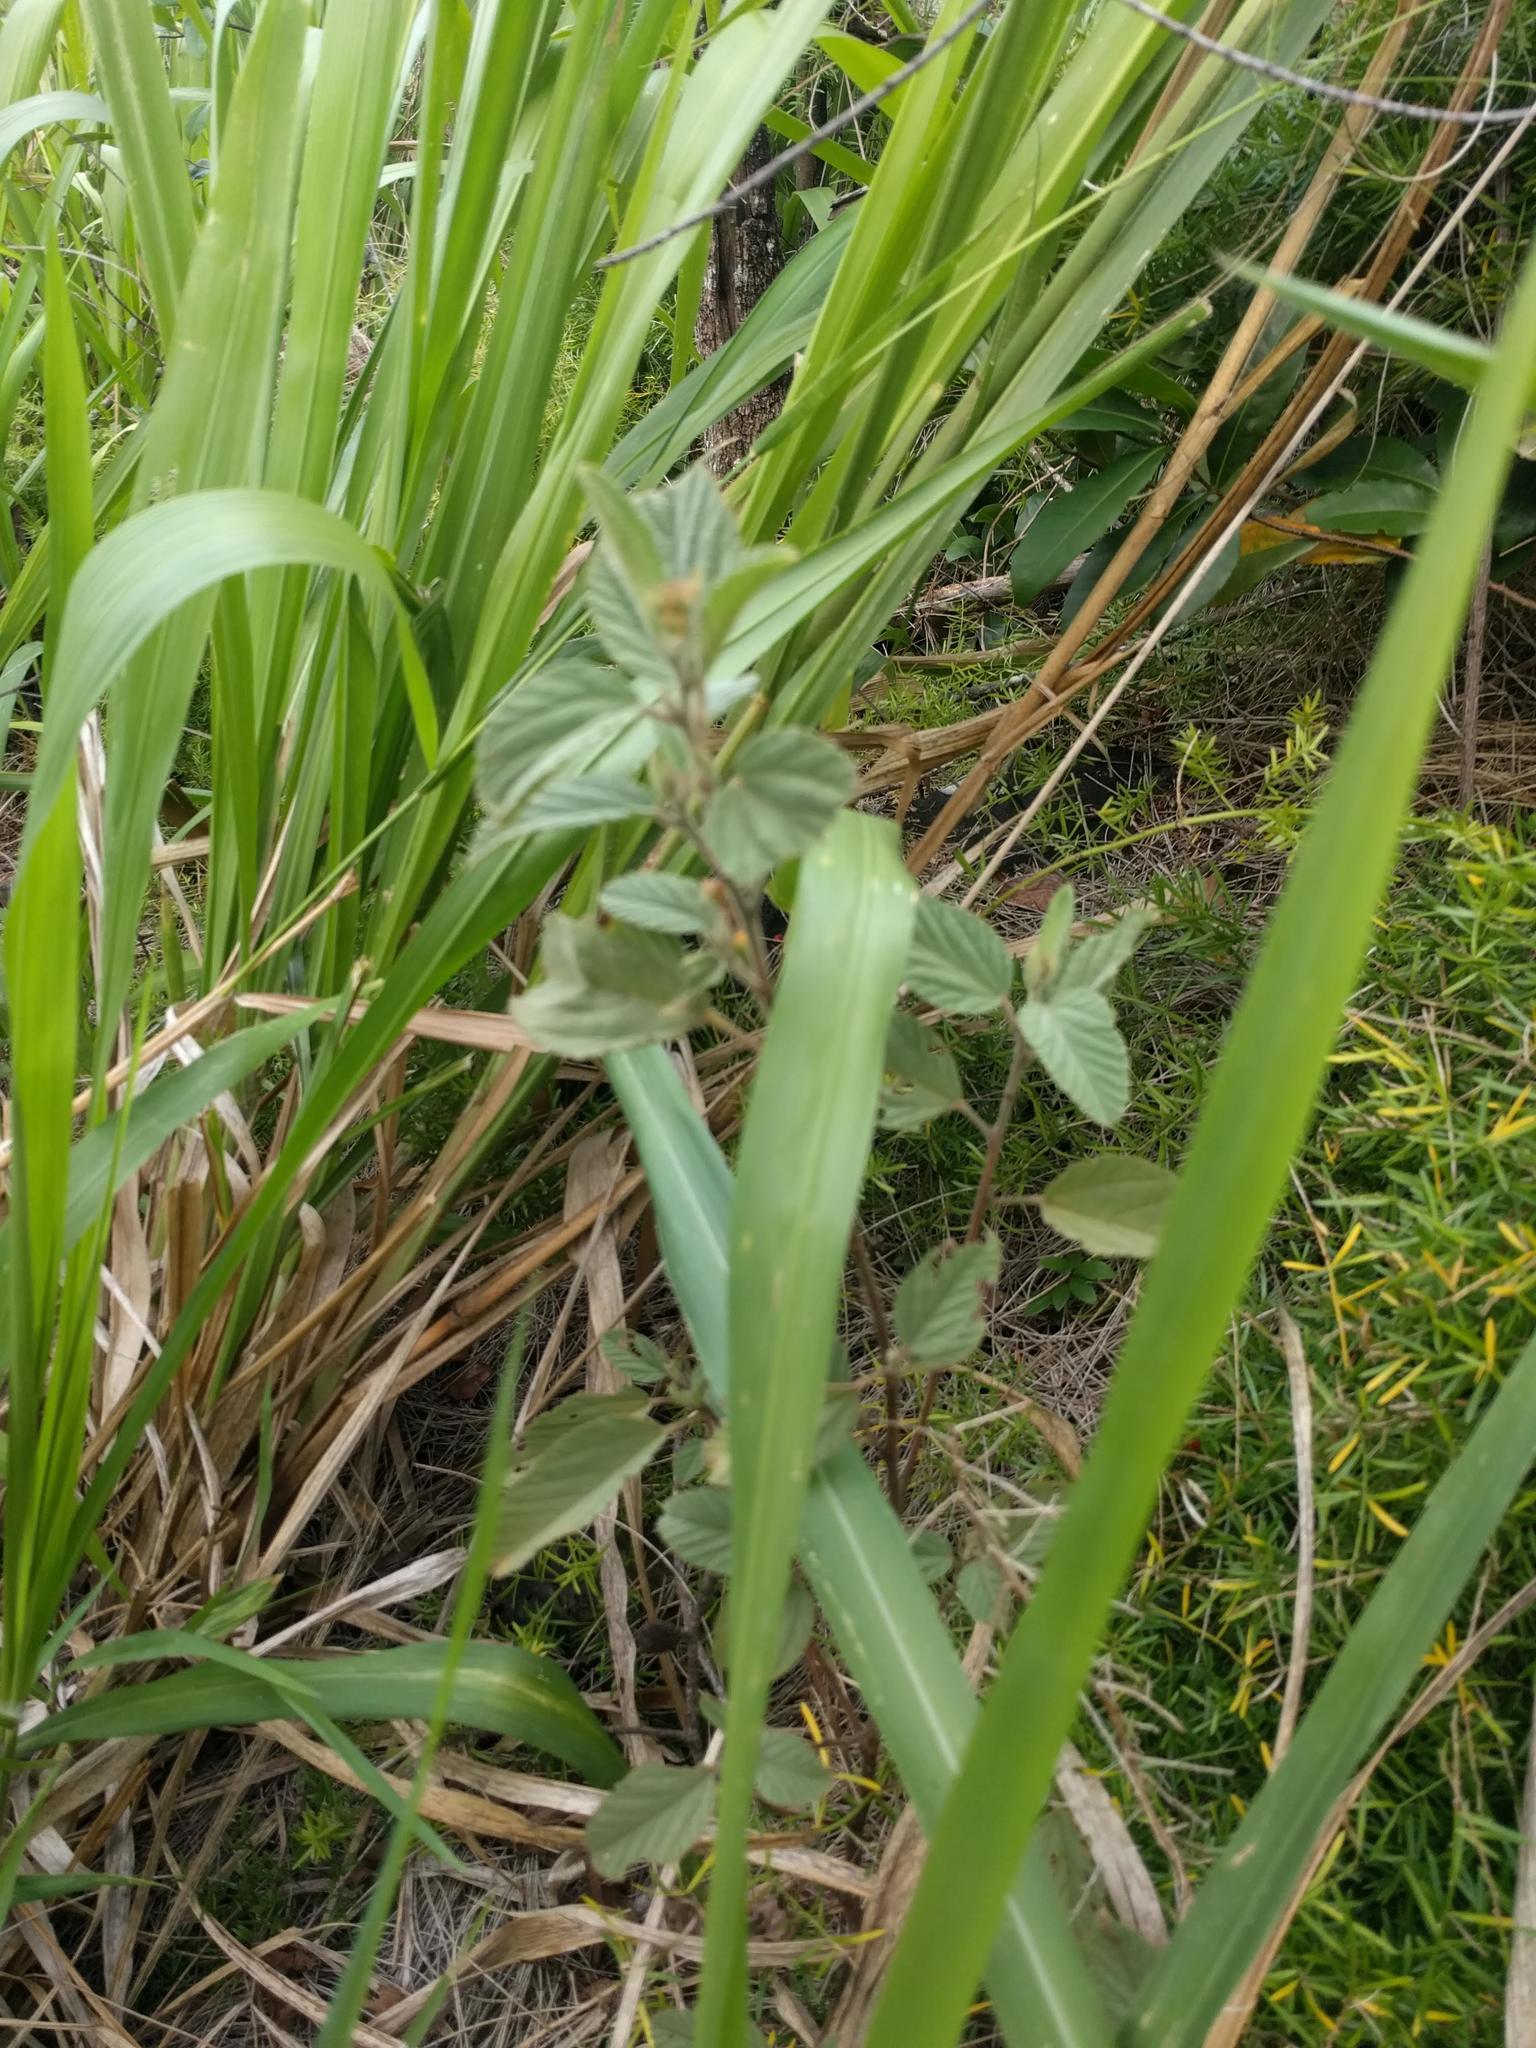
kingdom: Plantae
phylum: Tracheophyta
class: Magnoliopsida
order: Malvales
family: Malvaceae
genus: Waltheria
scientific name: Waltheria indica
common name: Leather-coat
